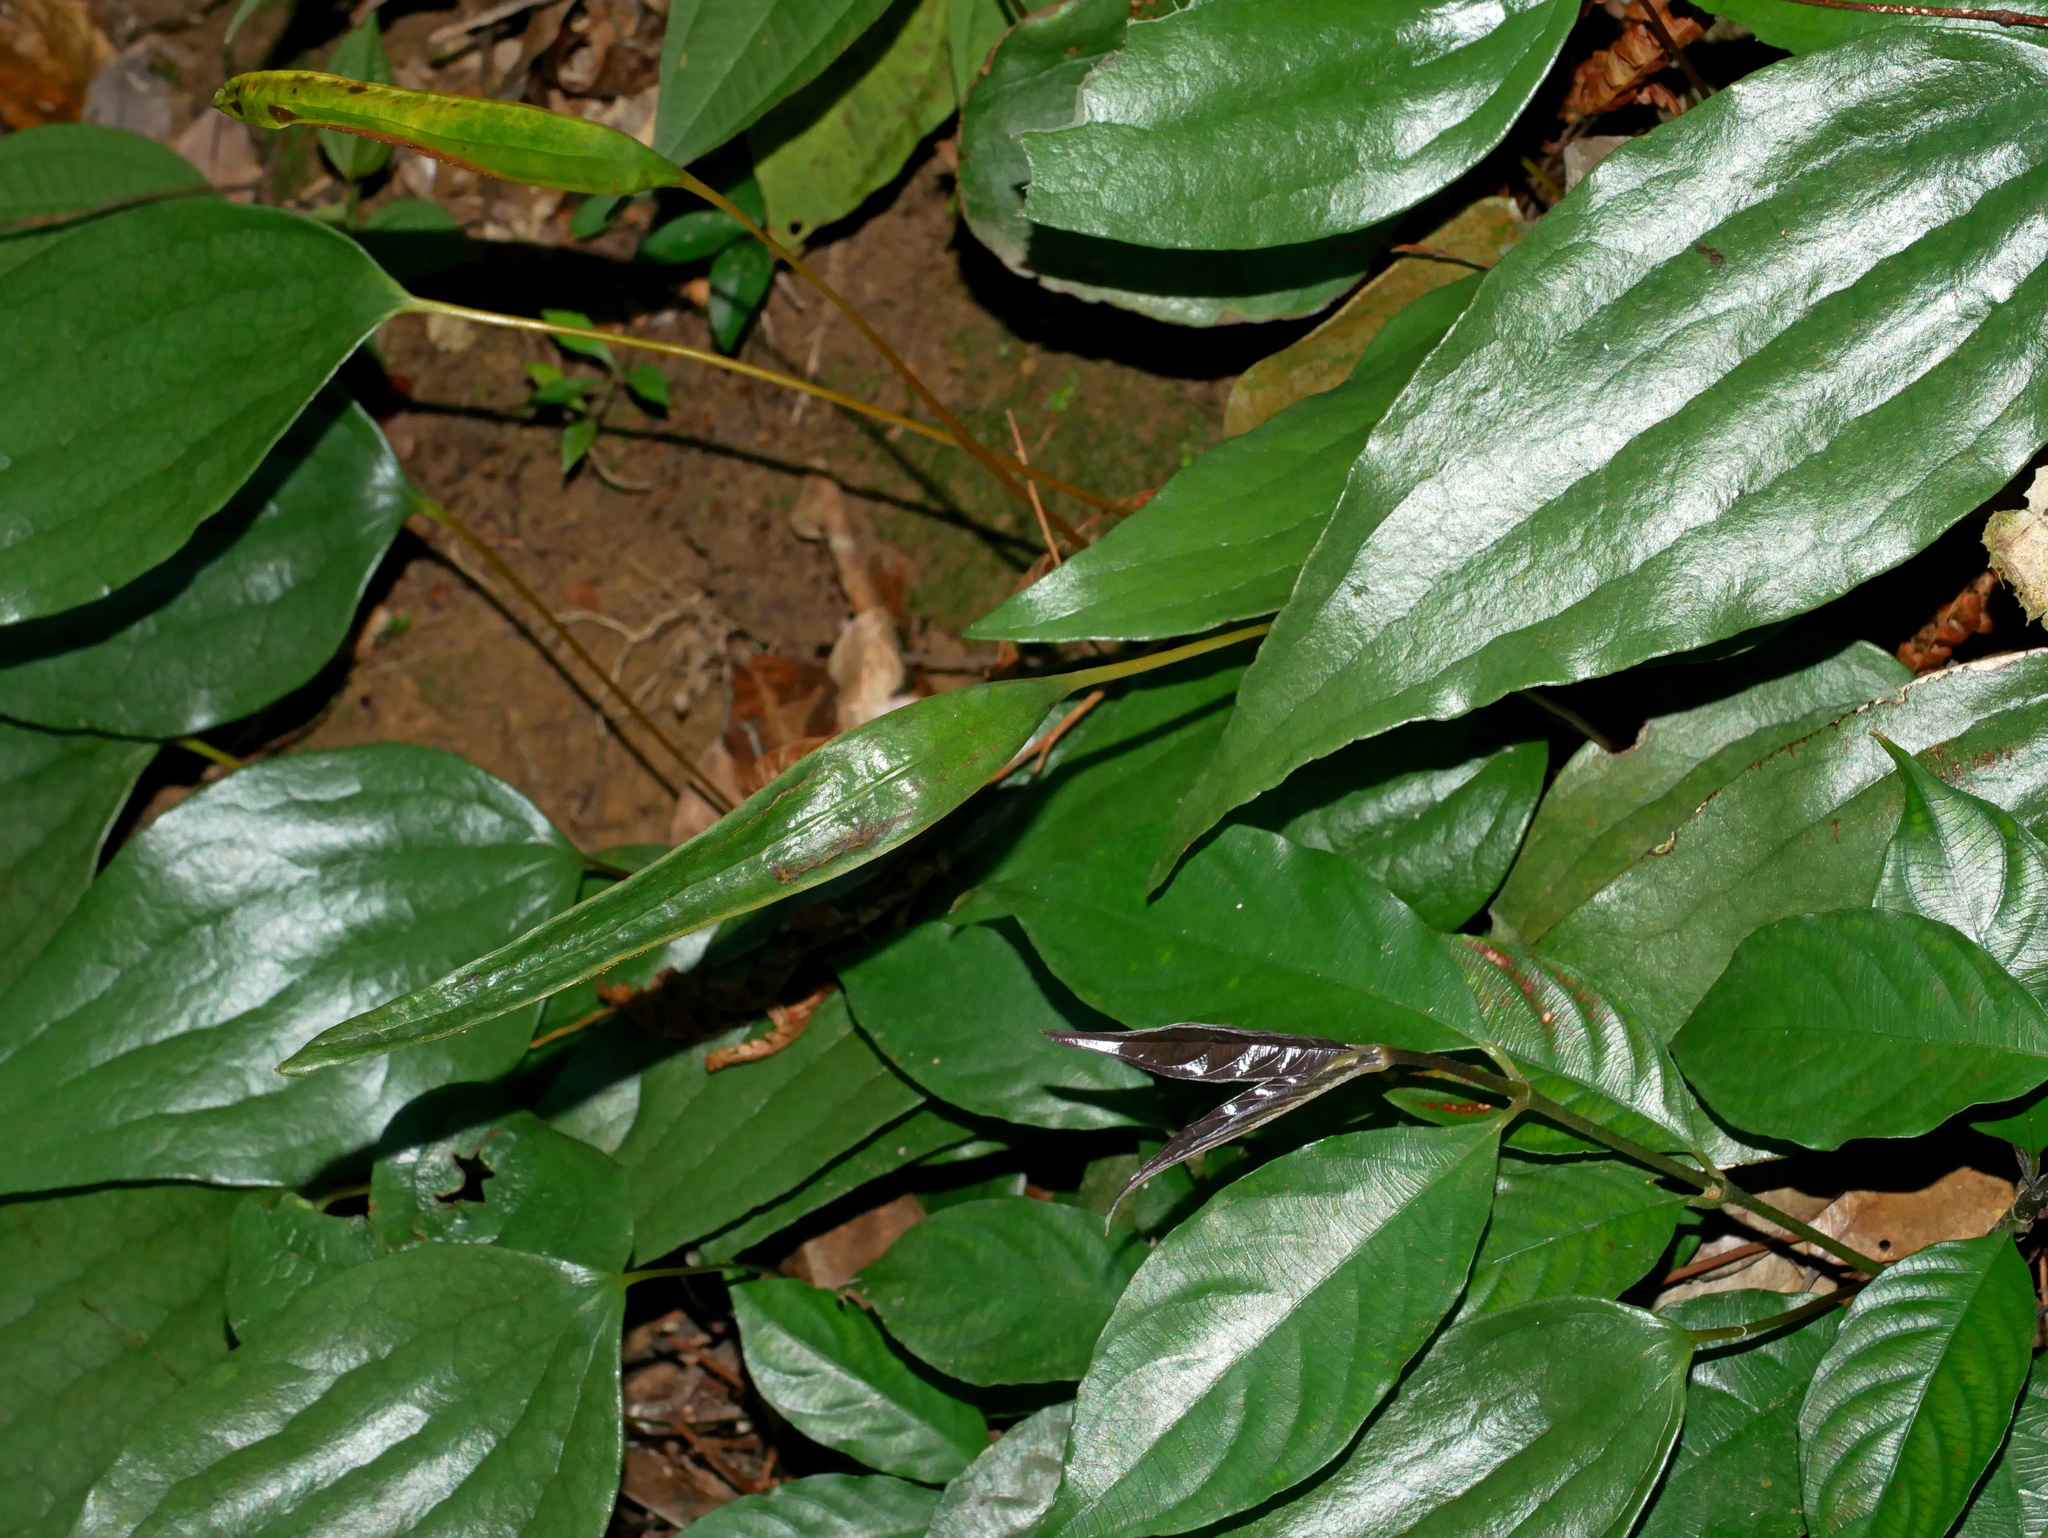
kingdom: Plantae
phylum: Tracheophyta
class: Polypodiopsida
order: Gleicheniales
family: Dipteridaceae
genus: Cheiropleuria
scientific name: Cheiropleuria integrifolia
